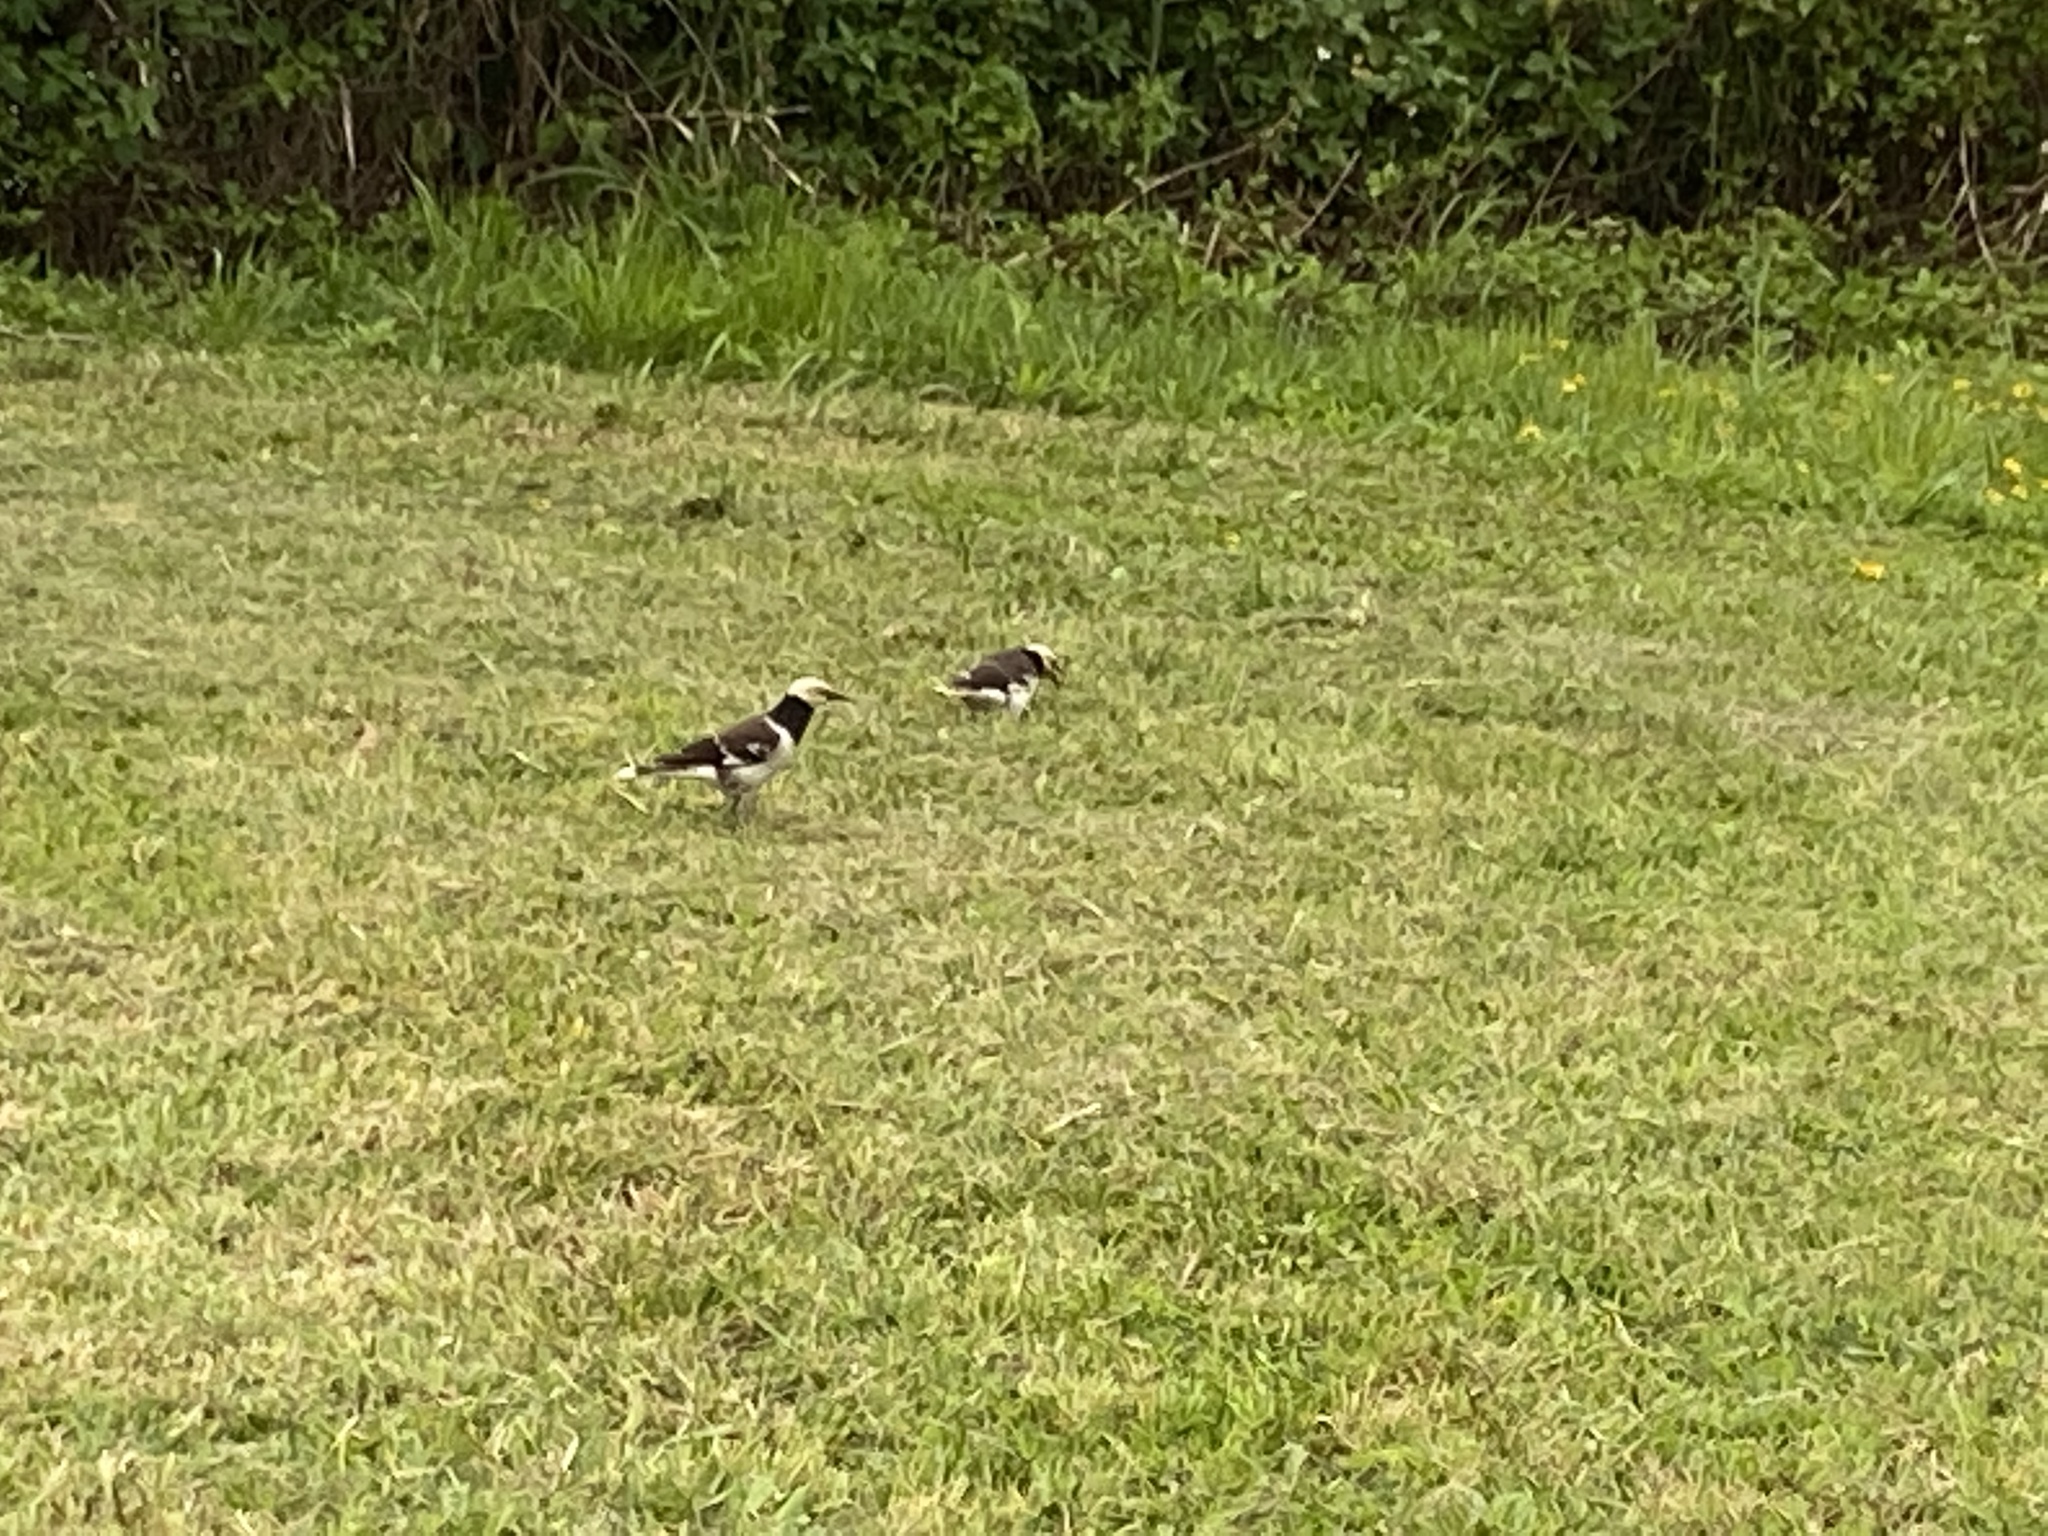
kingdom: Animalia
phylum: Chordata
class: Aves
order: Passeriformes
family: Sturnidae
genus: Gracupica
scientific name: Gracupica nigricollis
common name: Black-collared starling
